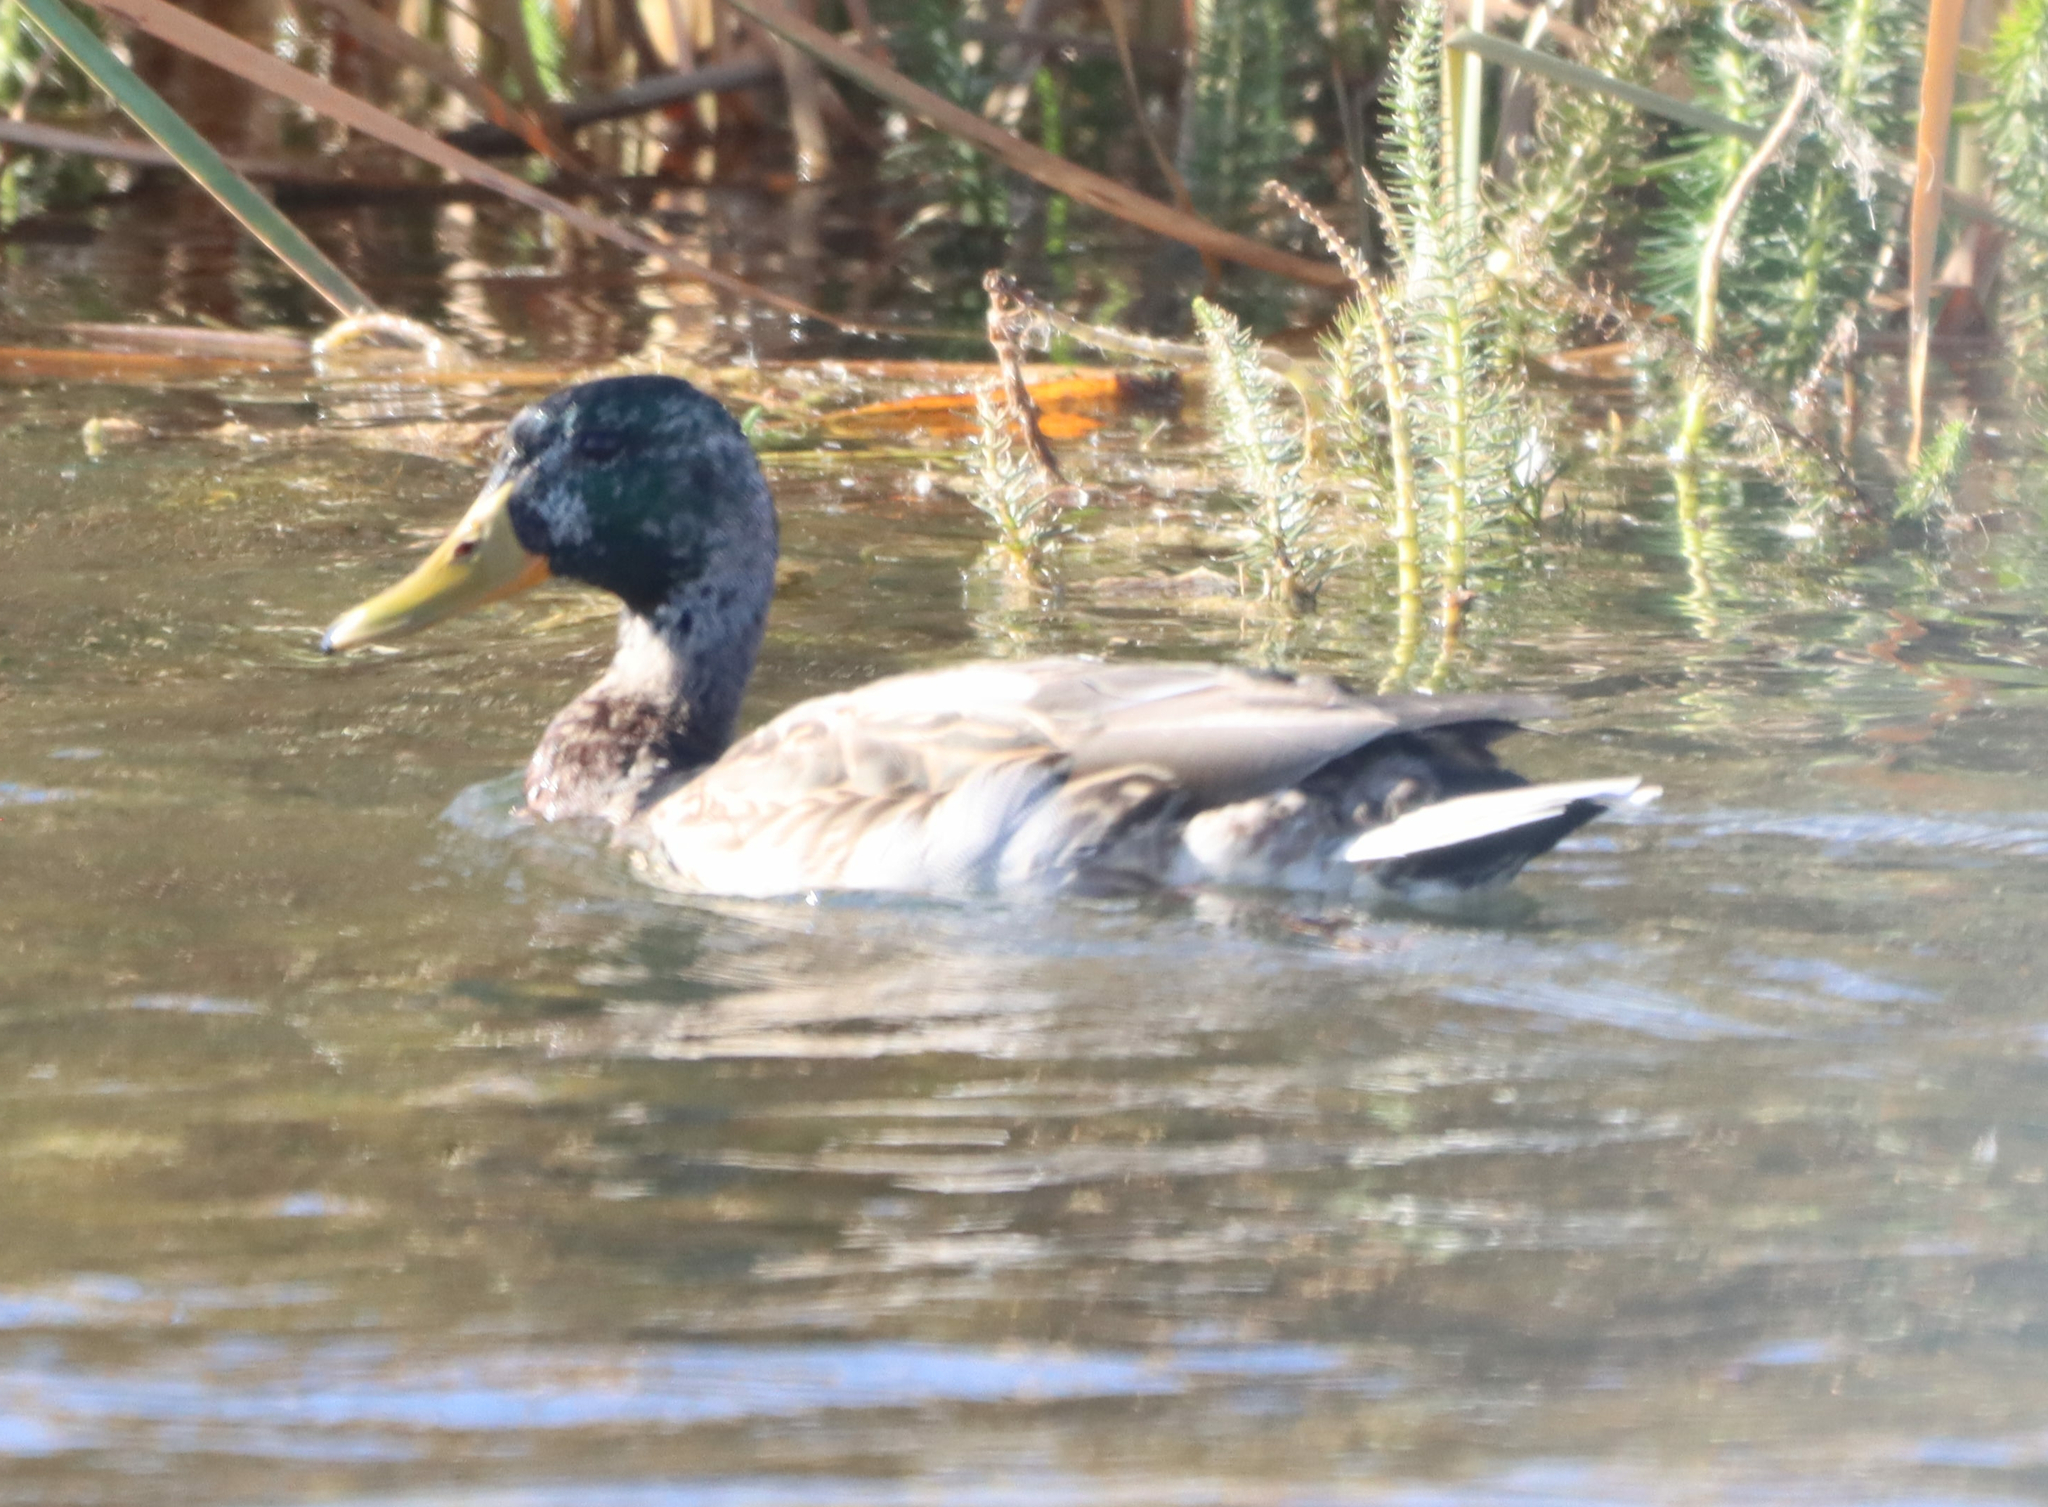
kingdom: Animalia
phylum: Chordata
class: Aves
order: Anseriformes
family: Anatidae
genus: Anas
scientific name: Anas platyrhynchos
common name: Mallard
